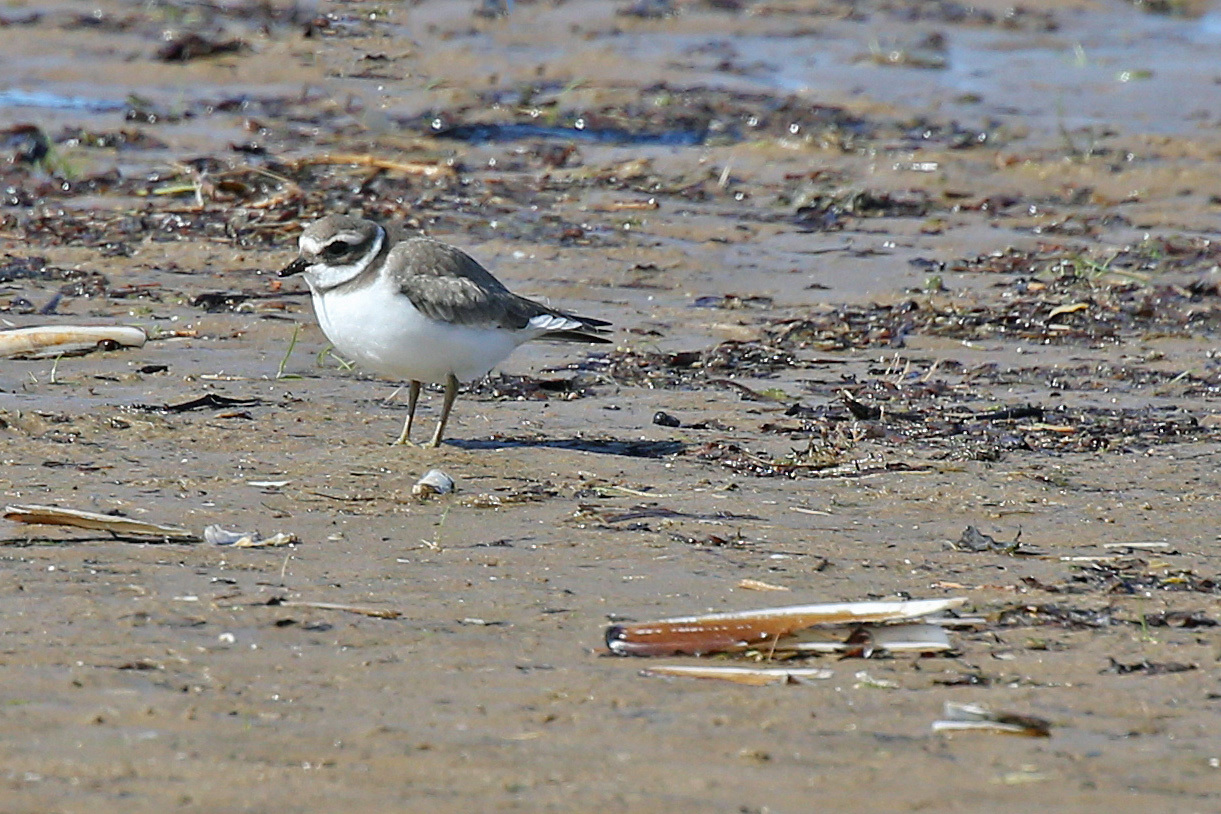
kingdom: Animalia
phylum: Chordata
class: Aves
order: Charadriiformes
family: Charadriidae
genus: Charadrius
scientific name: Charadrius hiaticula
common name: Common ringed plover
